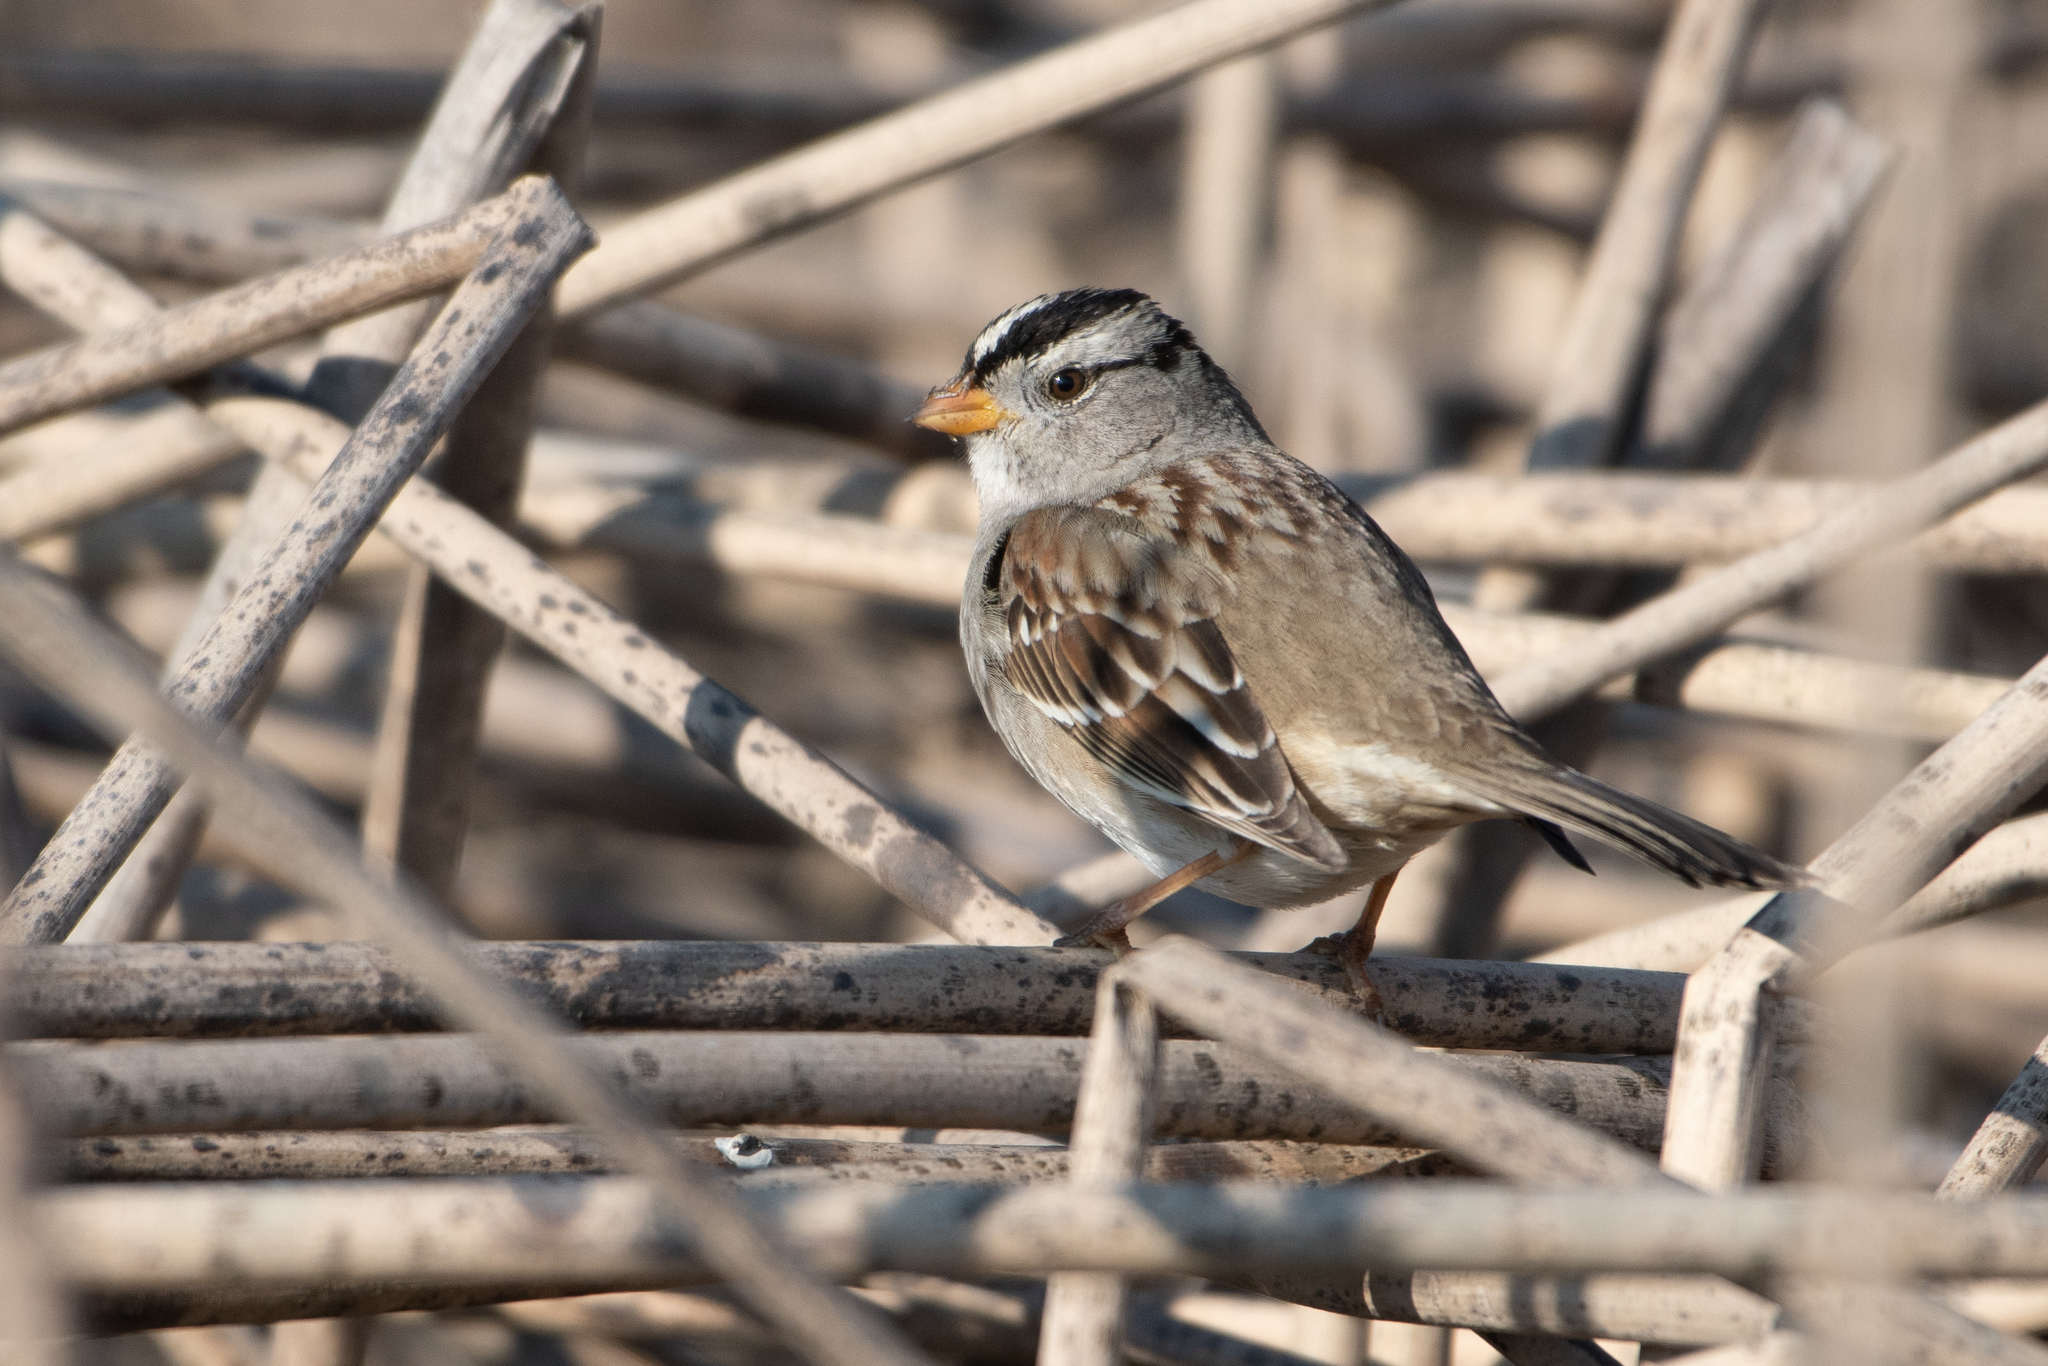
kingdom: Animalia
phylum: Chordata
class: Aves
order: Passeriformes
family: Passerellidae
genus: Zonotrichia
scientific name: Zonotrichia leucophrys
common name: White-crowned sparrow
